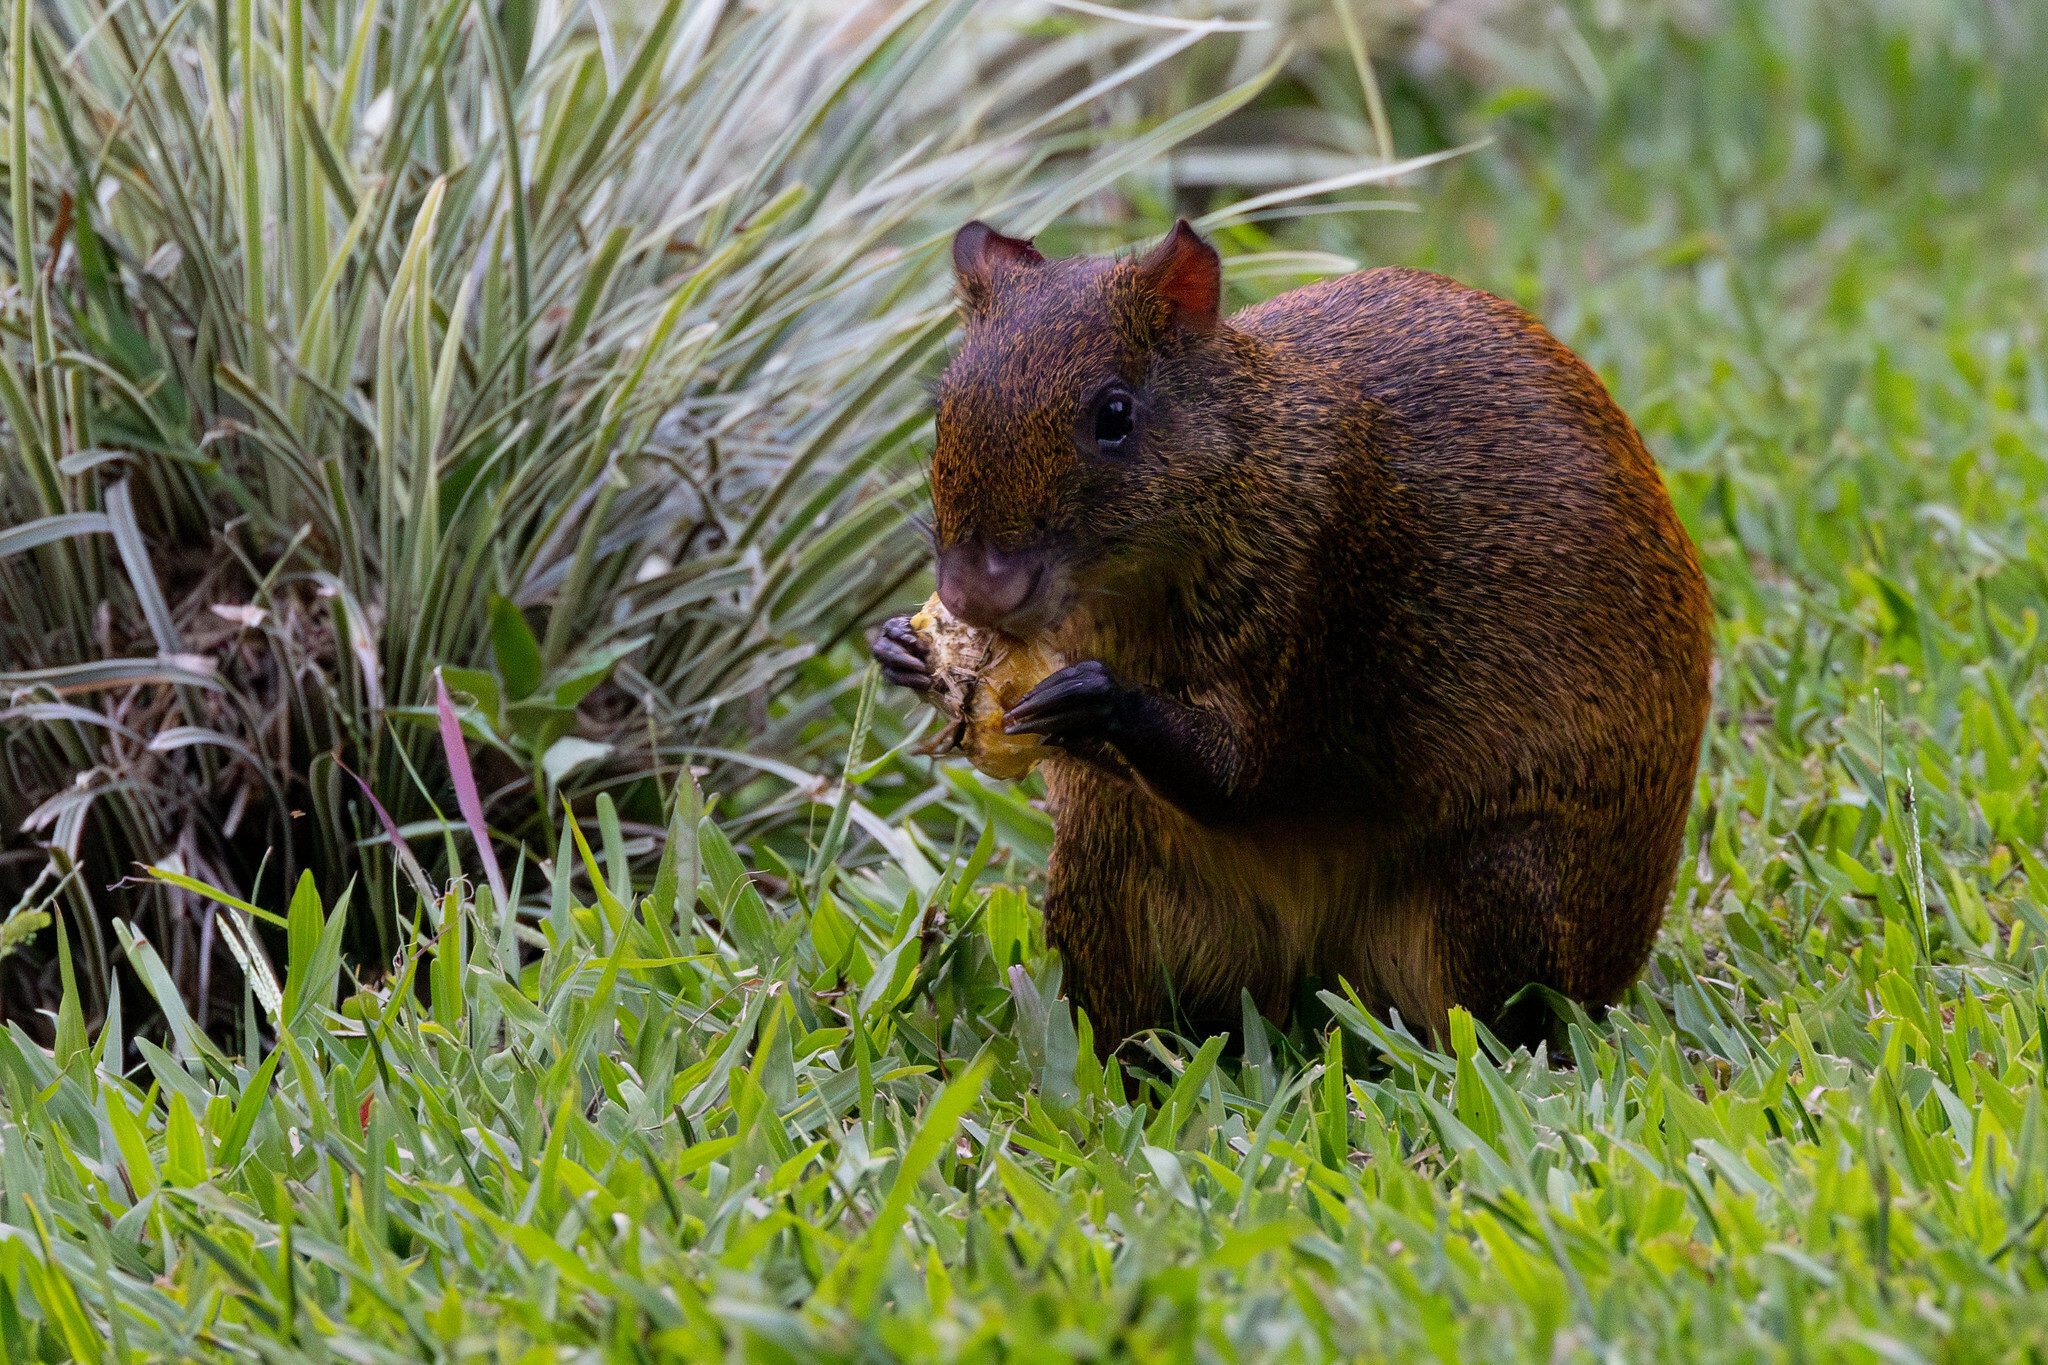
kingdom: Animalia
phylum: Chordata
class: Mammalia
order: Rodentia
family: Dasyproctidae
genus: Dasyprocta
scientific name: Dasyprocta punctata
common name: Central american agouti
